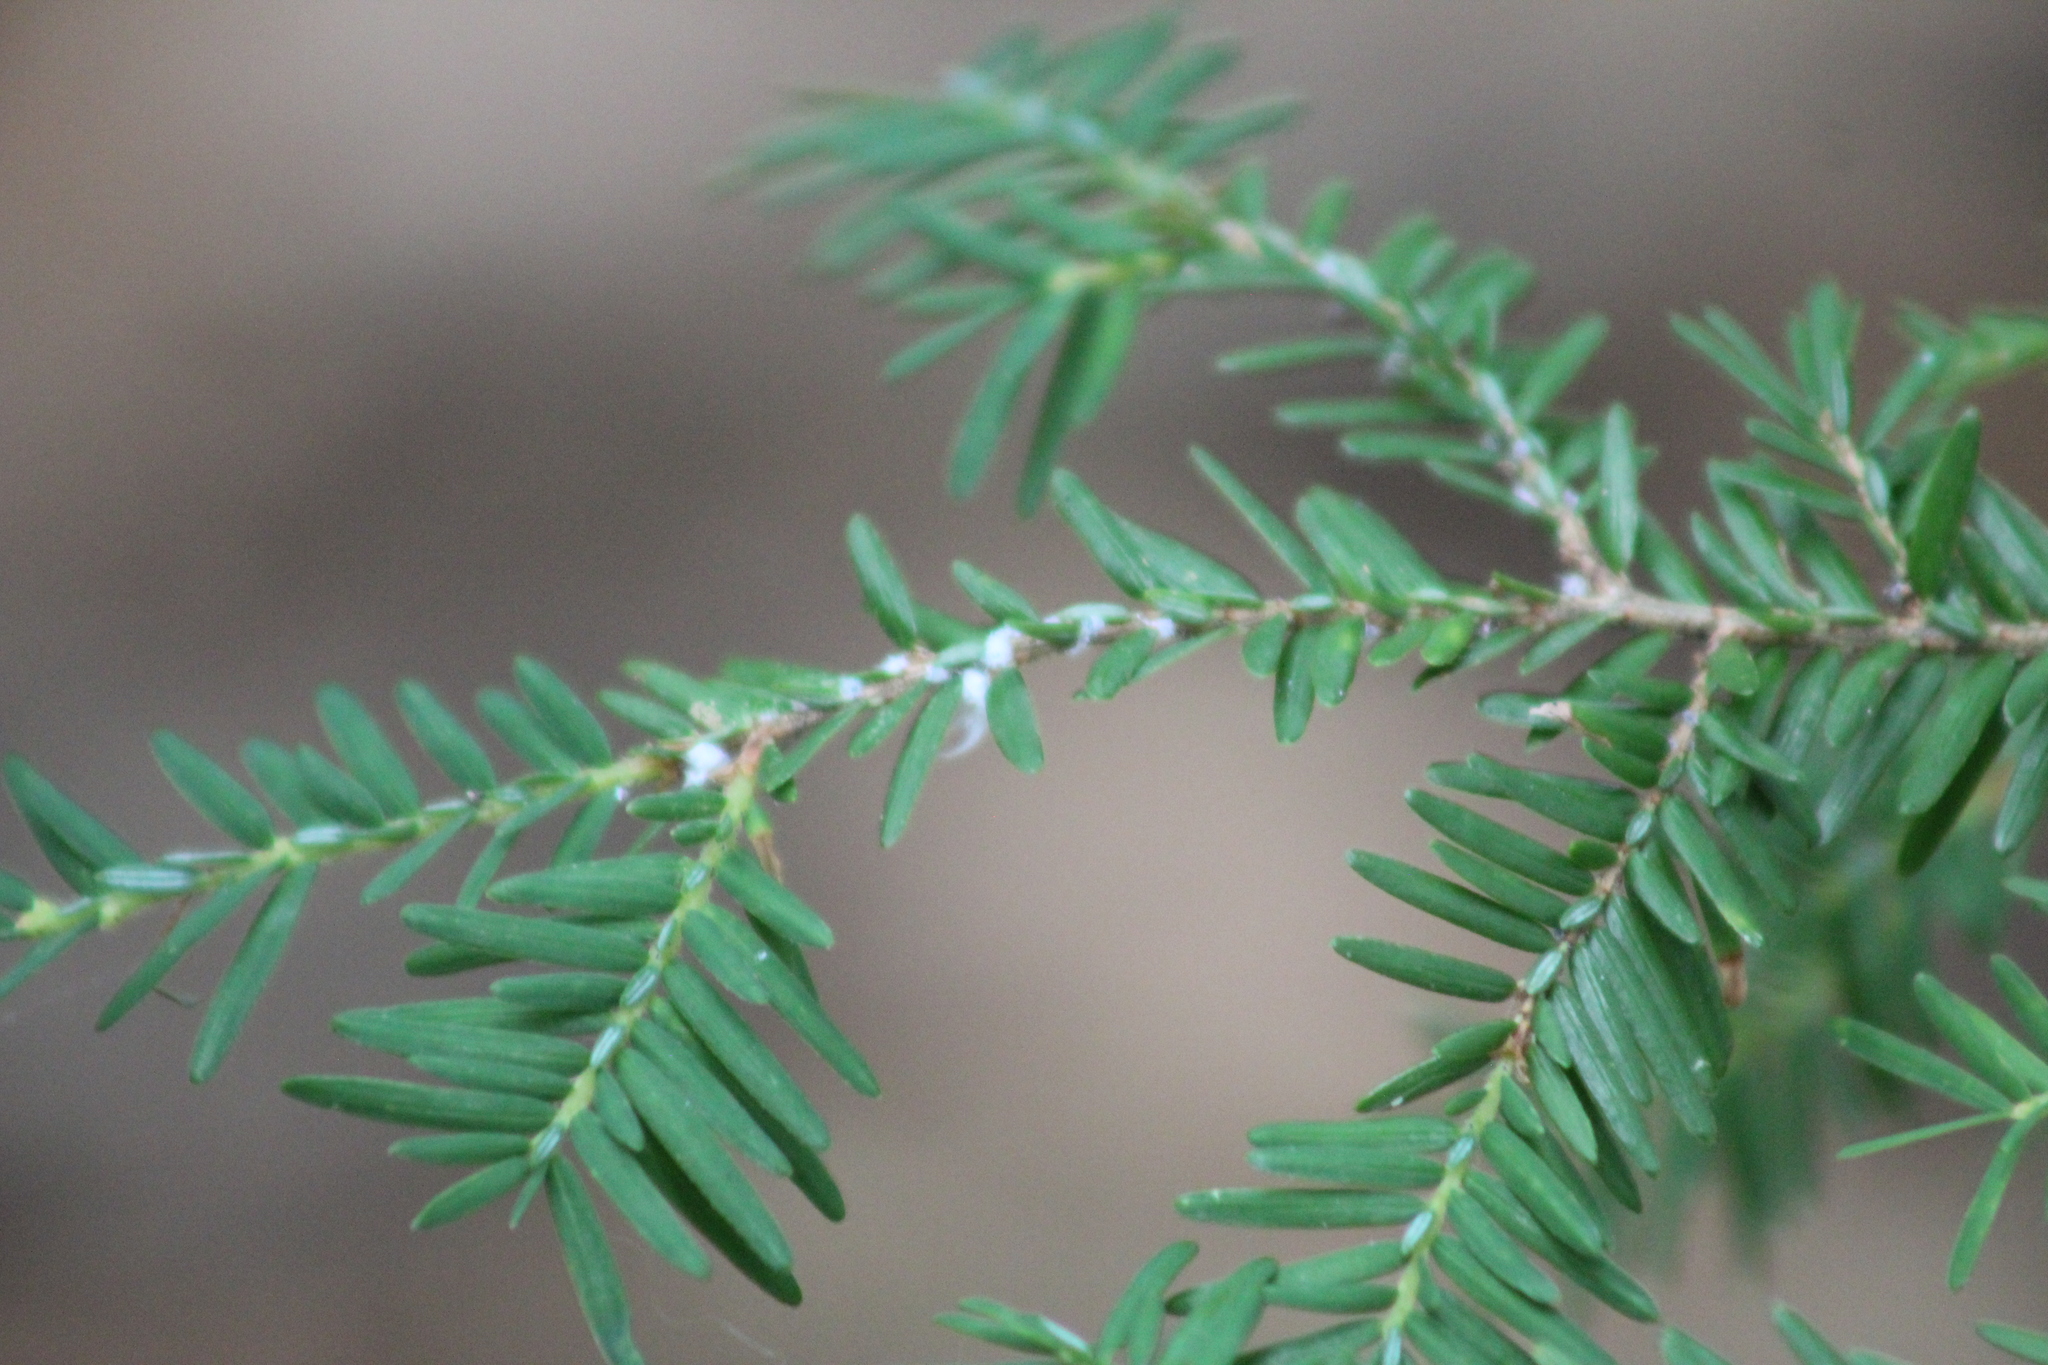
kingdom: Animalia
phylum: Arthropoda
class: Insecta
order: Hemiptera
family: Adelgidae
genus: Adelges
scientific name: Adelges tsugae
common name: Hemlock woolly adelgid
